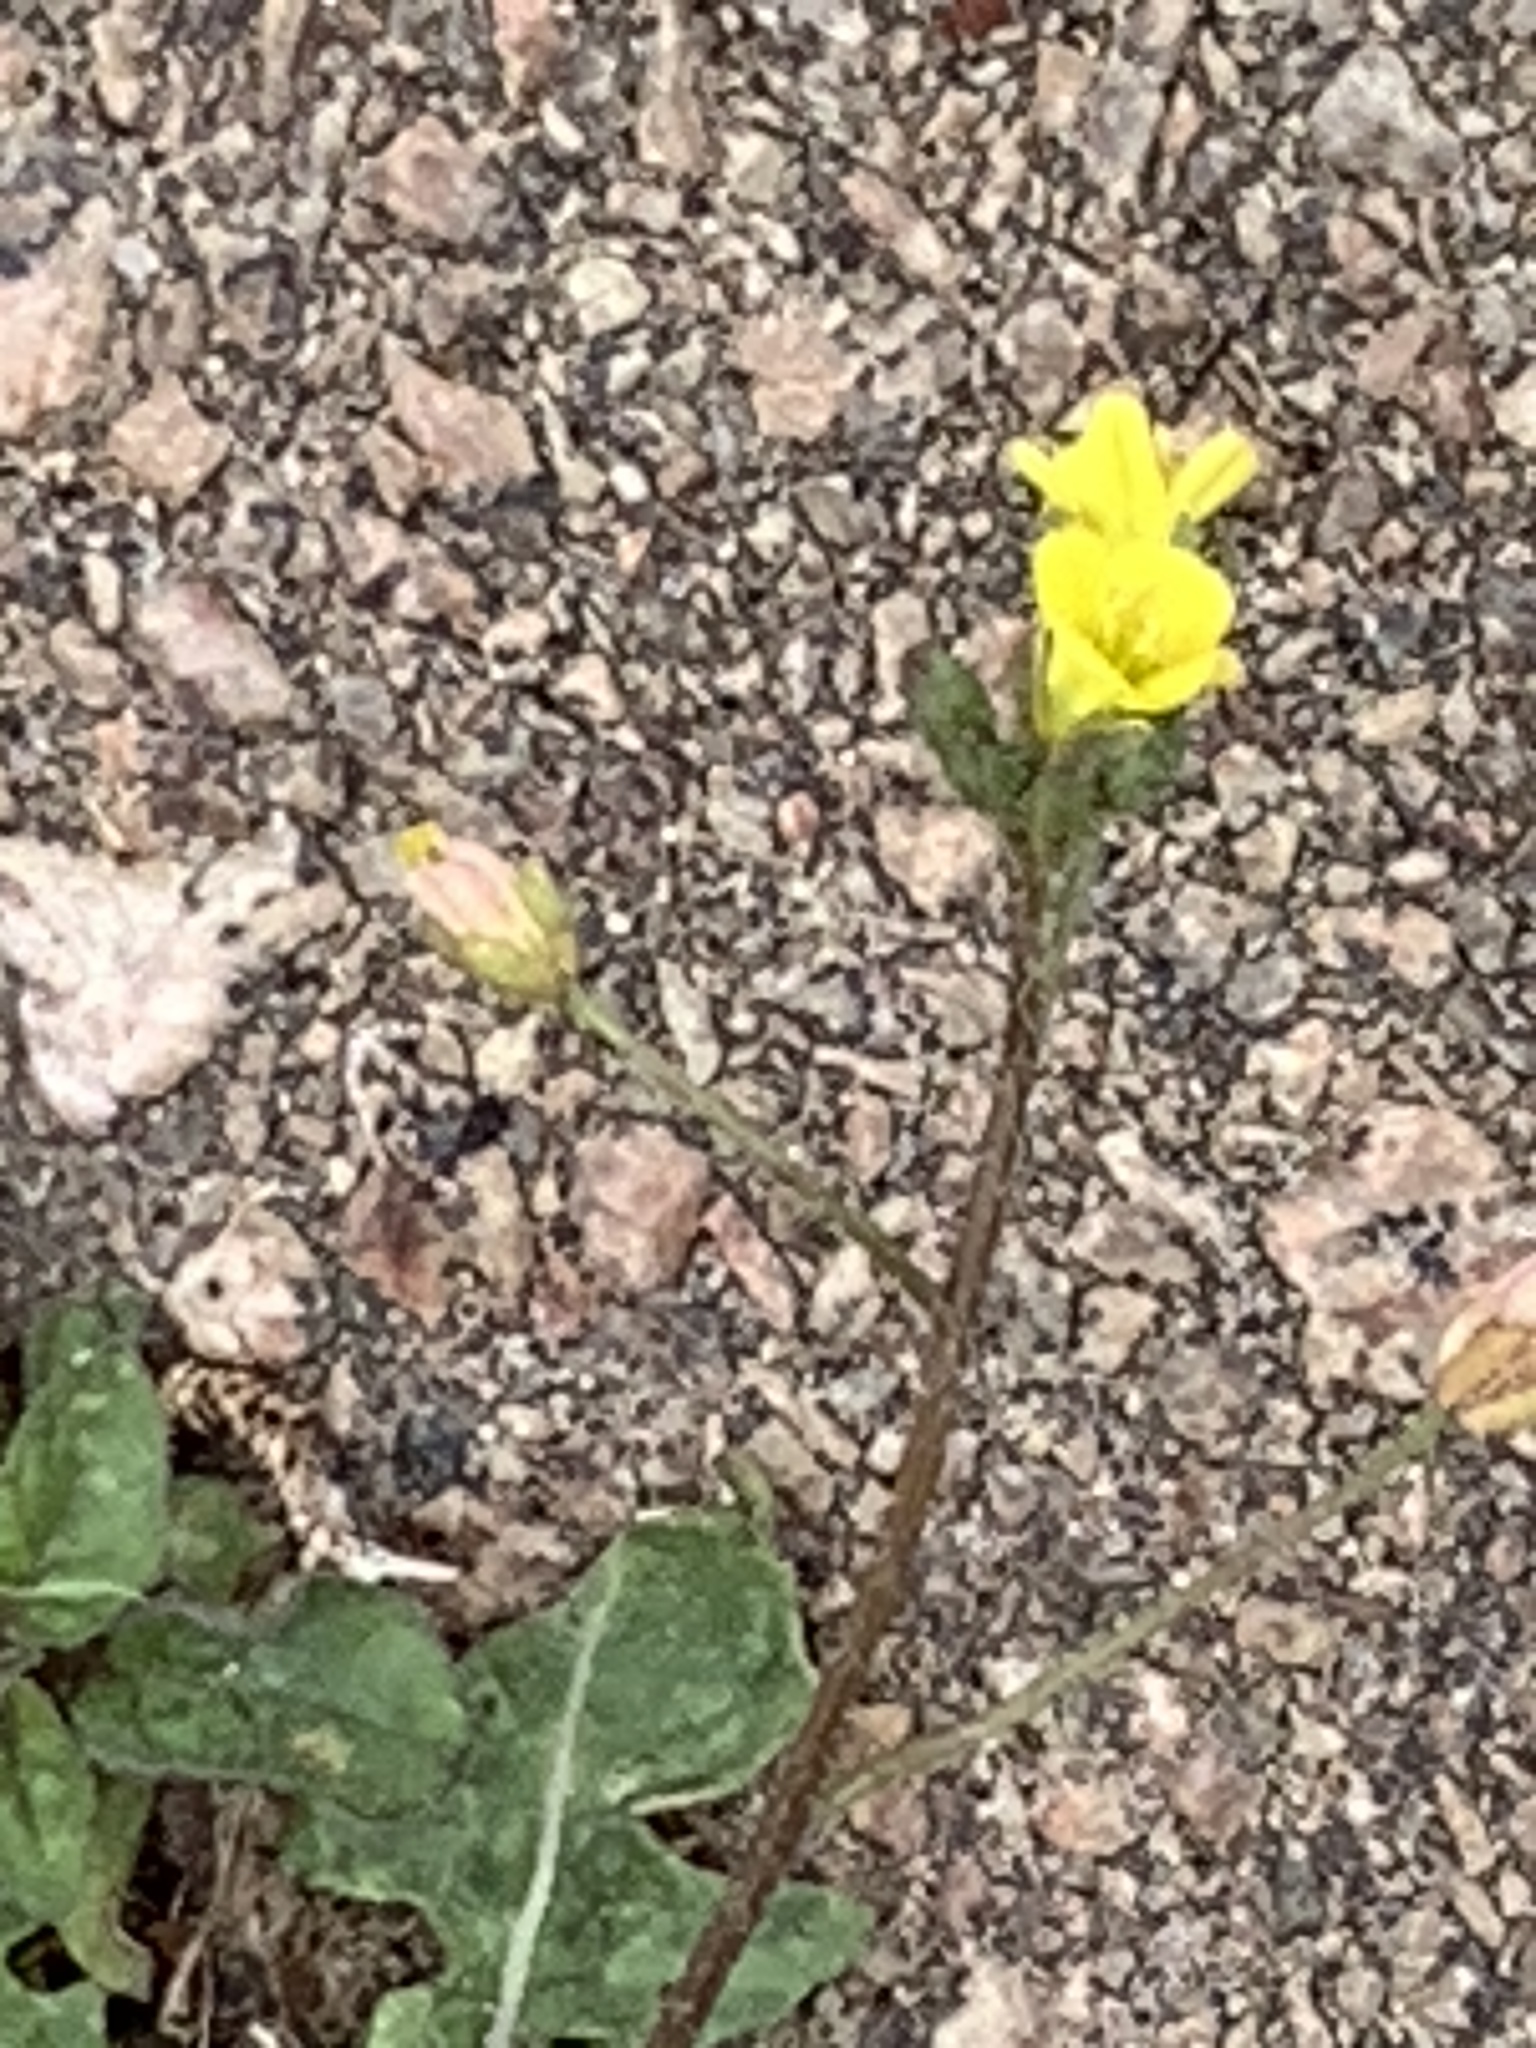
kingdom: Plantae
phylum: Tracheophyta
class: Magnoliopsida
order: Brassicales
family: Brassicaceae
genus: Diplotaxis
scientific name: Diplotaxis muralis
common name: Annual wall-rocket
